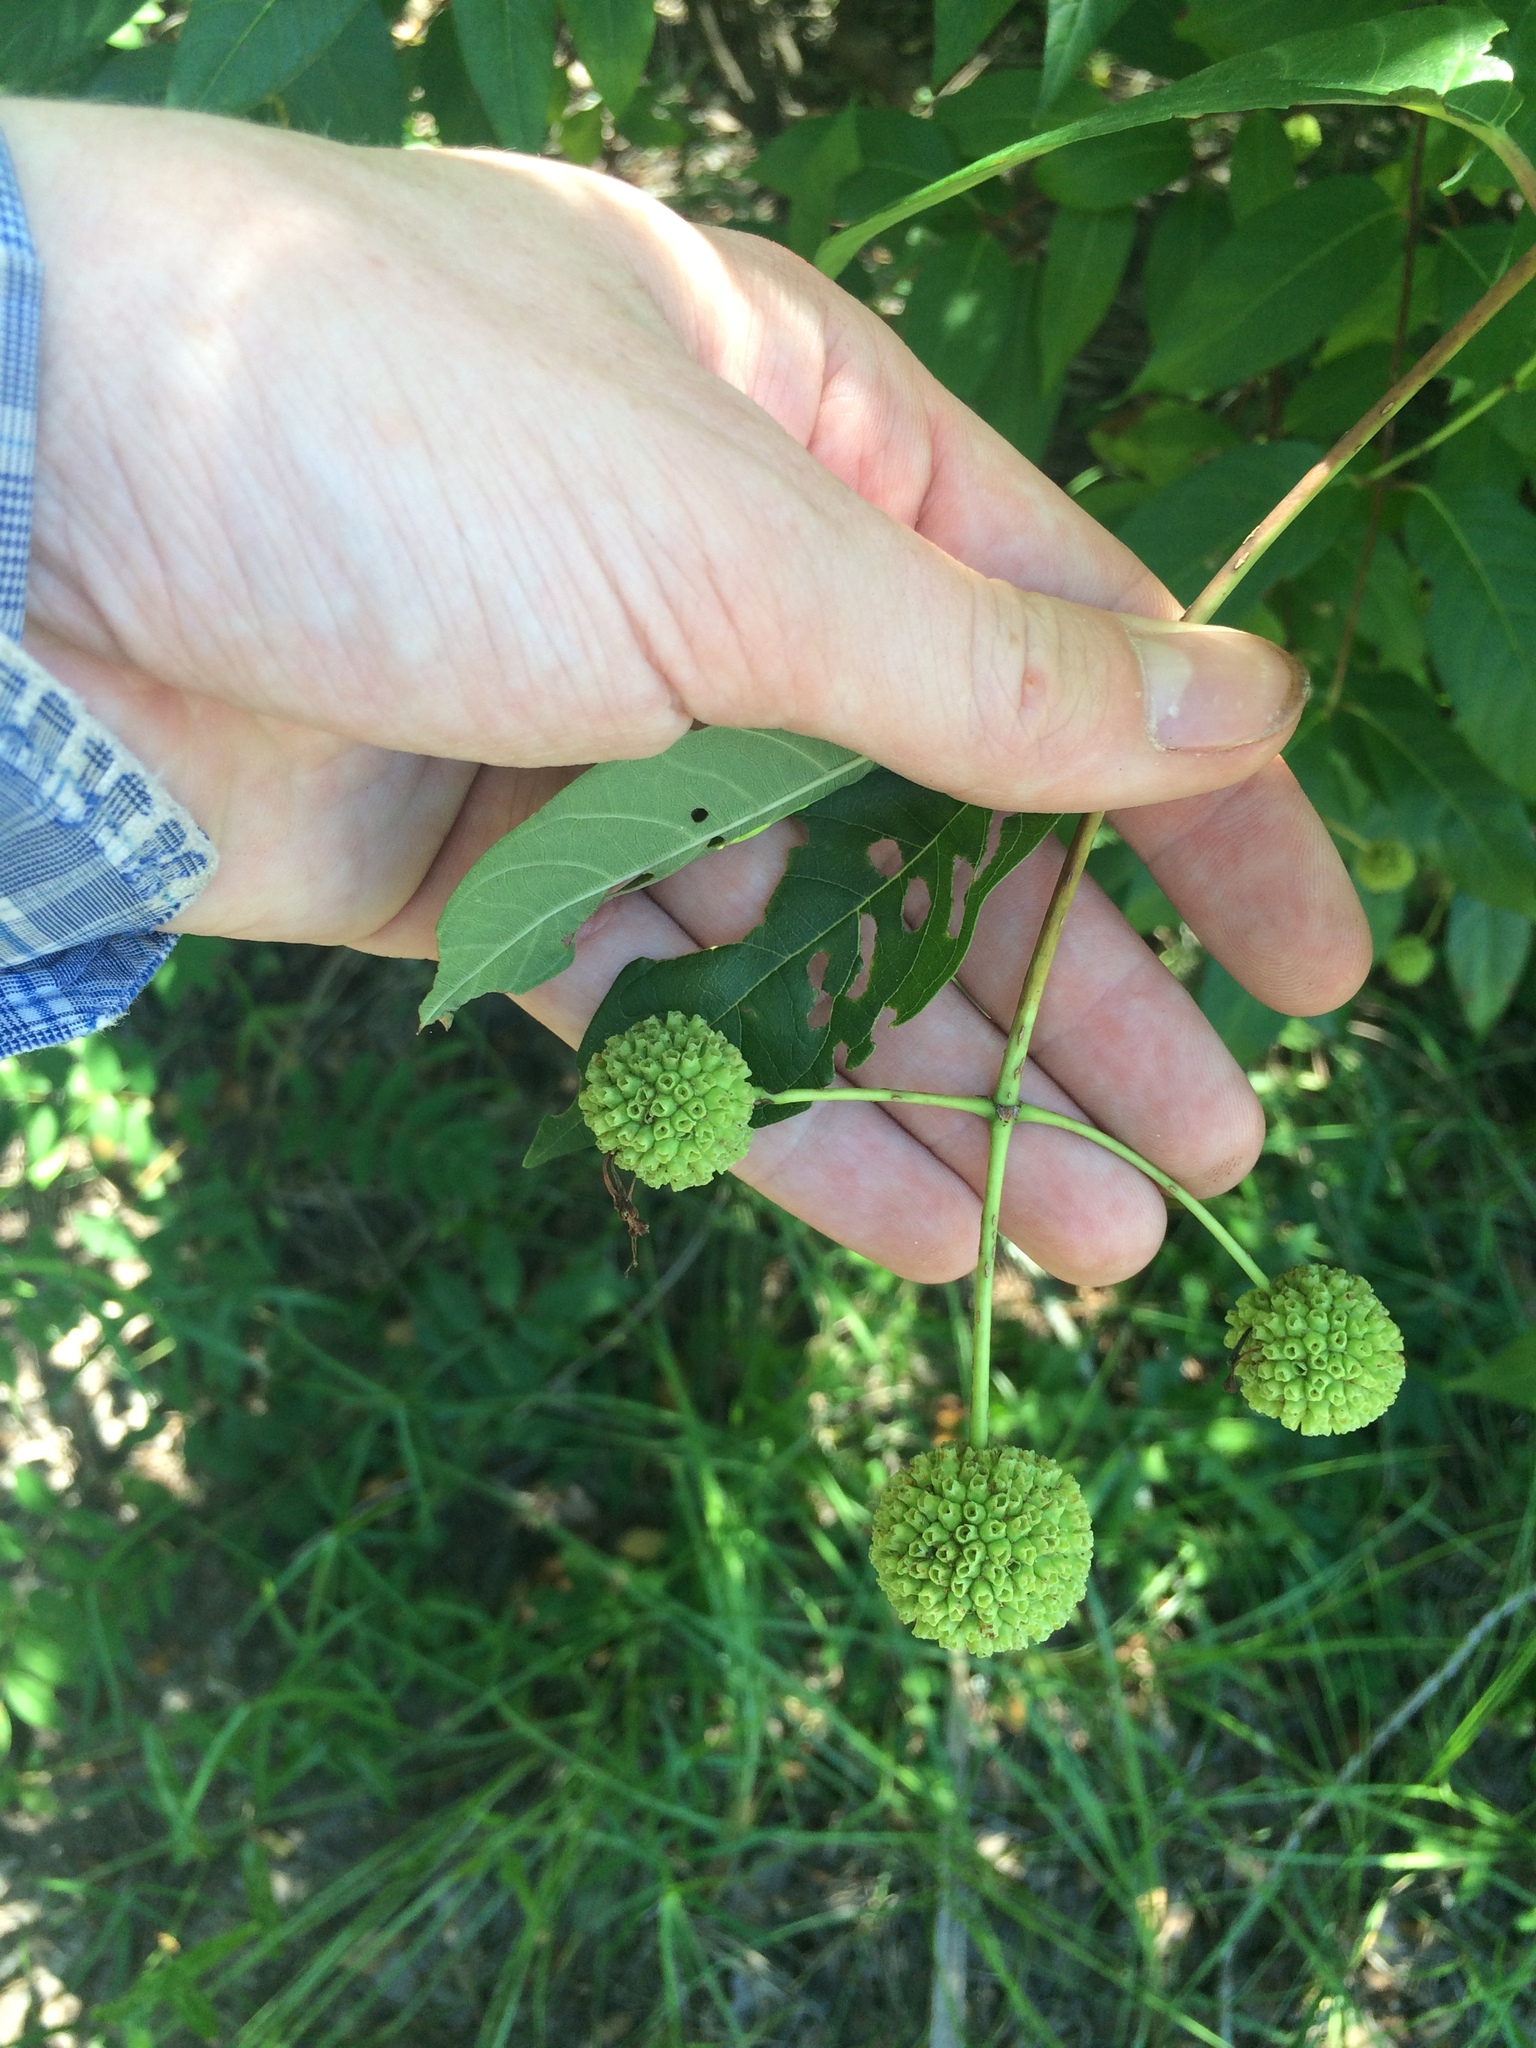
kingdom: Plantae
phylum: Tracheophyta
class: Magnoliopsida
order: Gentianales
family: Rubiaceae
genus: Cephalanthus
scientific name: Cephalanthus occidentalis
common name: Button-willow
